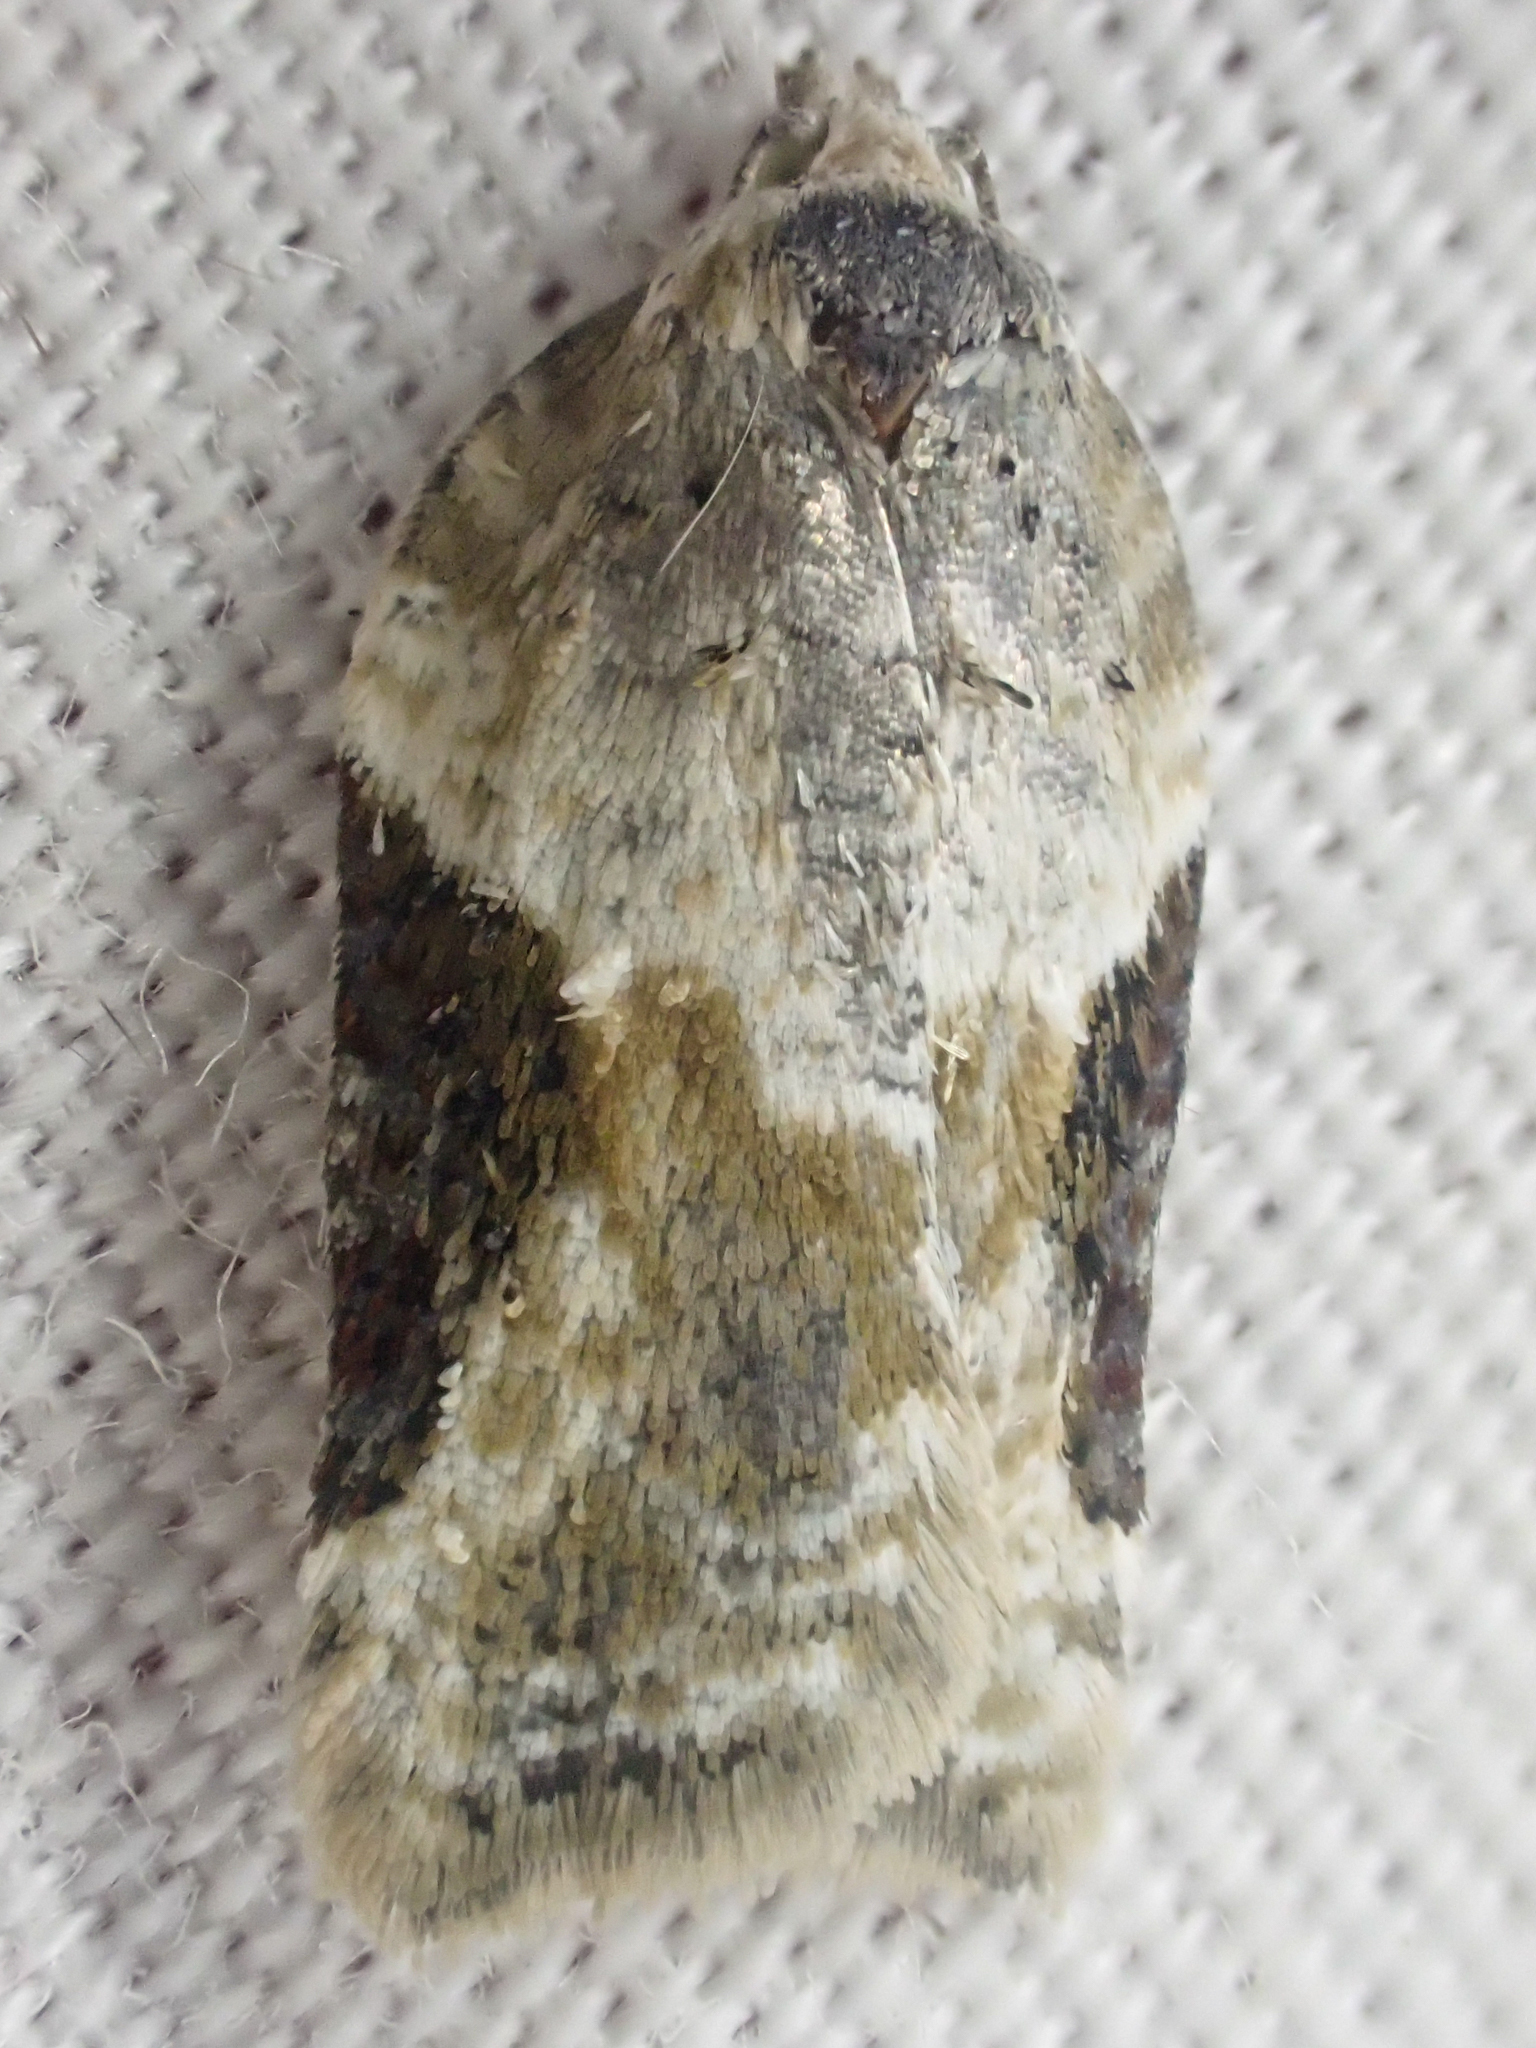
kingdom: Animalia
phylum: Arthropoda
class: Insecta
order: Lepidoptera
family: Tortricidae
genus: Acleris
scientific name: Acleris forbesana
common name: Forbes' acleris moth
